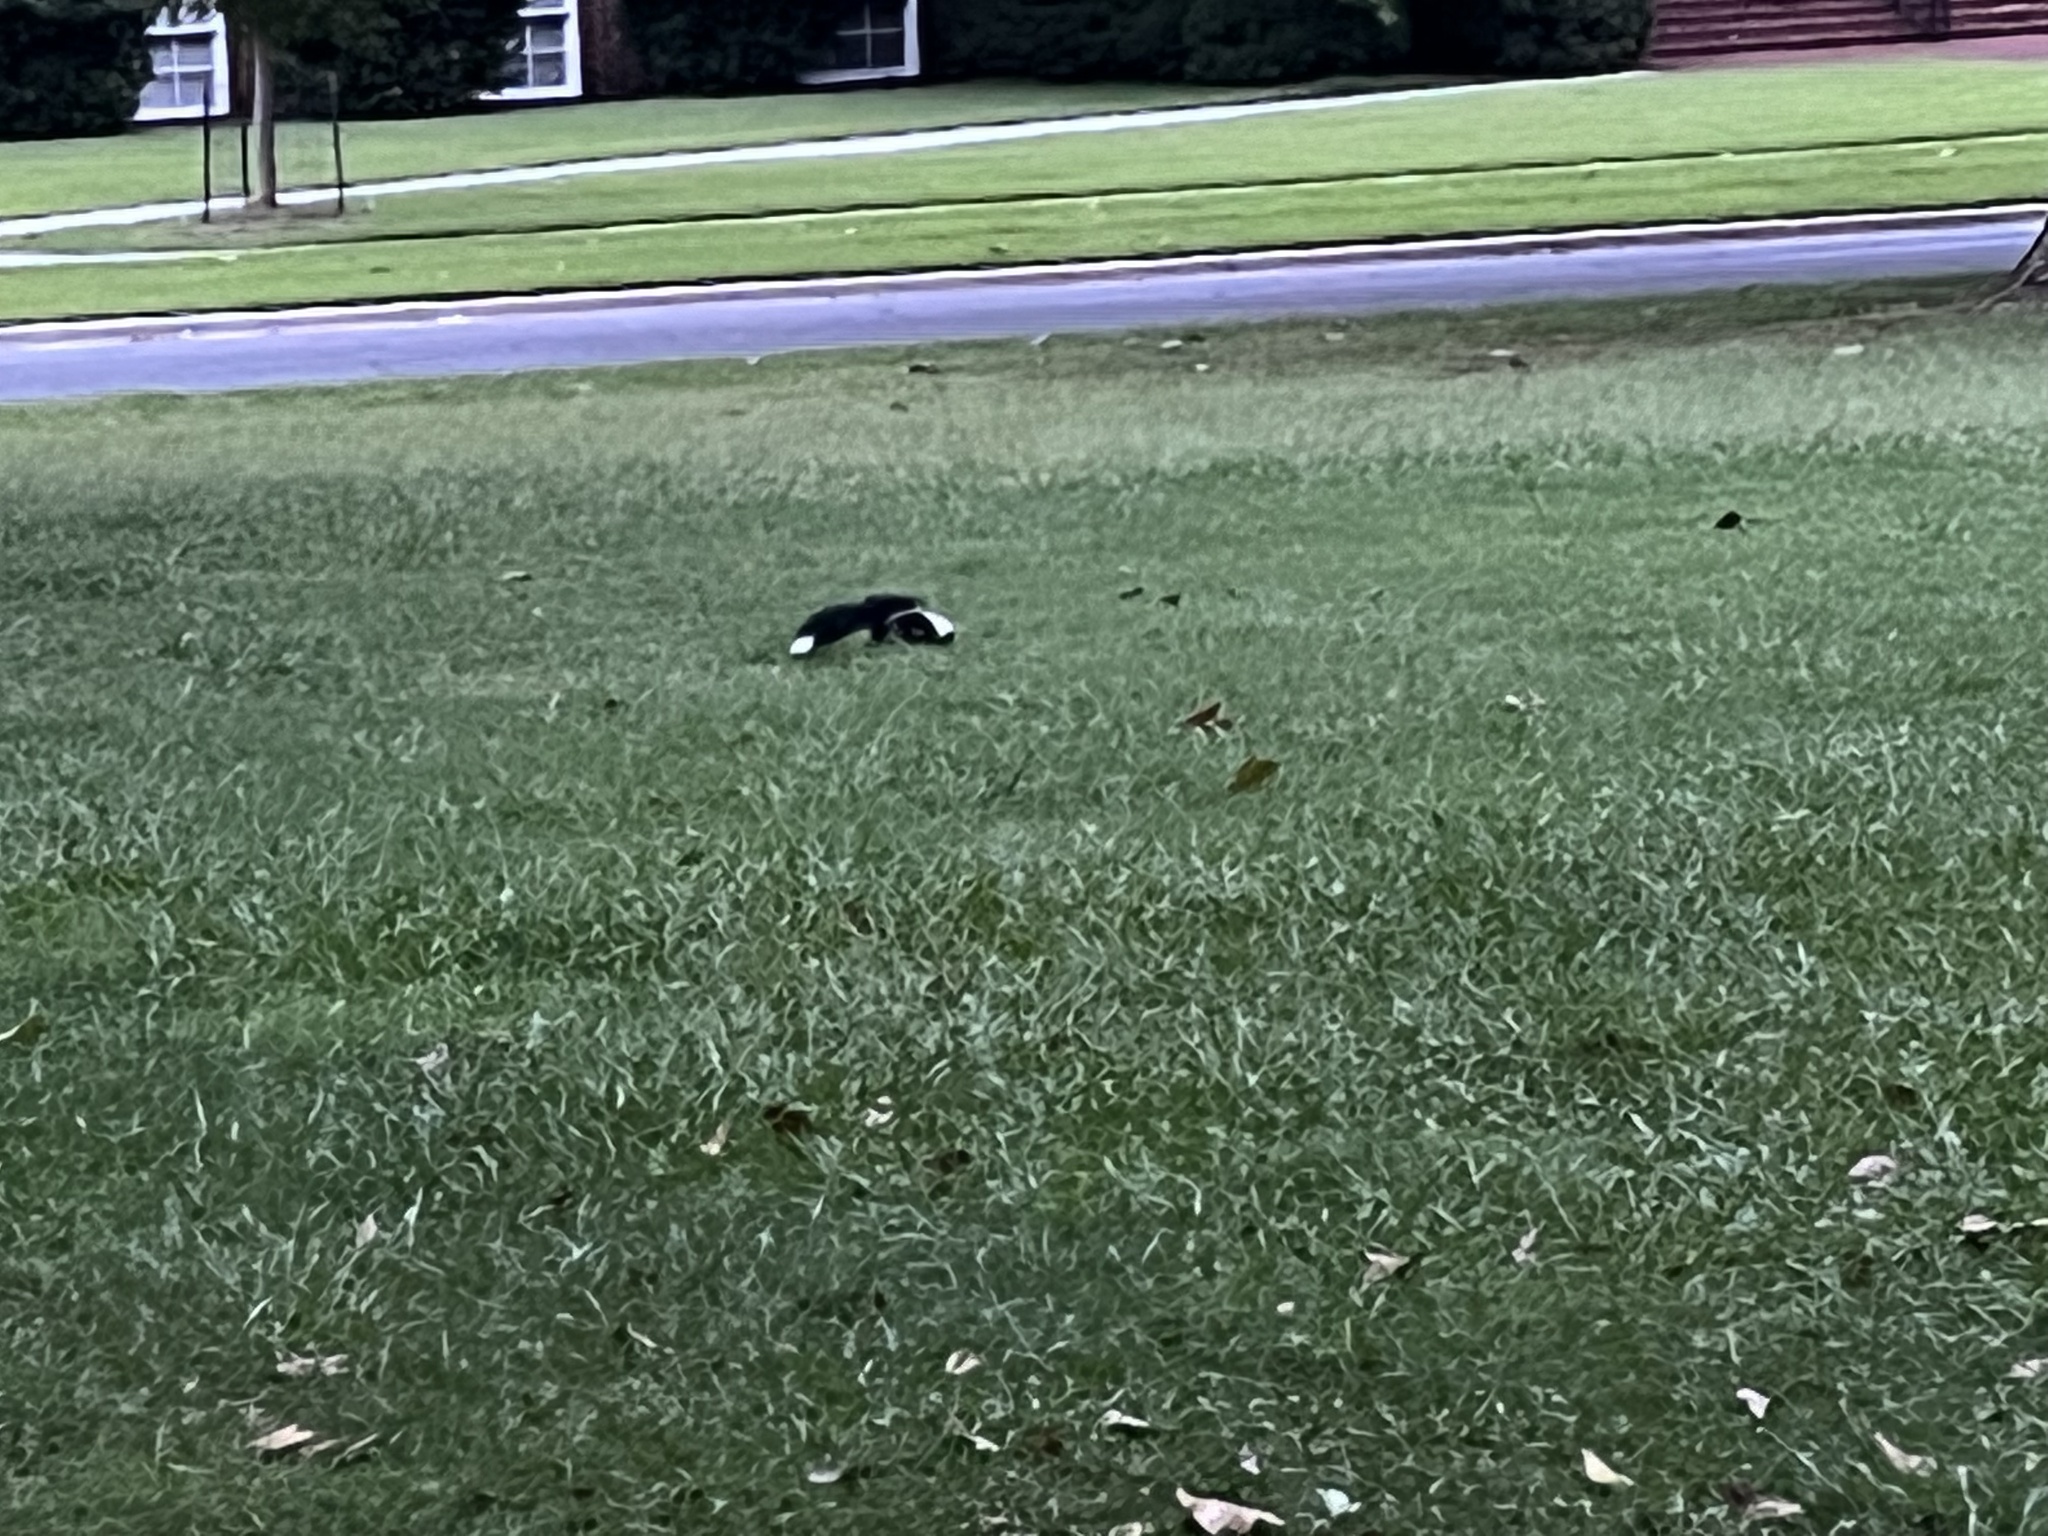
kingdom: Animalia
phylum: Chordata
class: Mammalia
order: Carnivora
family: Mephitidae
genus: Mephitis
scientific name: Mephitis mephitis
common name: Striped skunk
